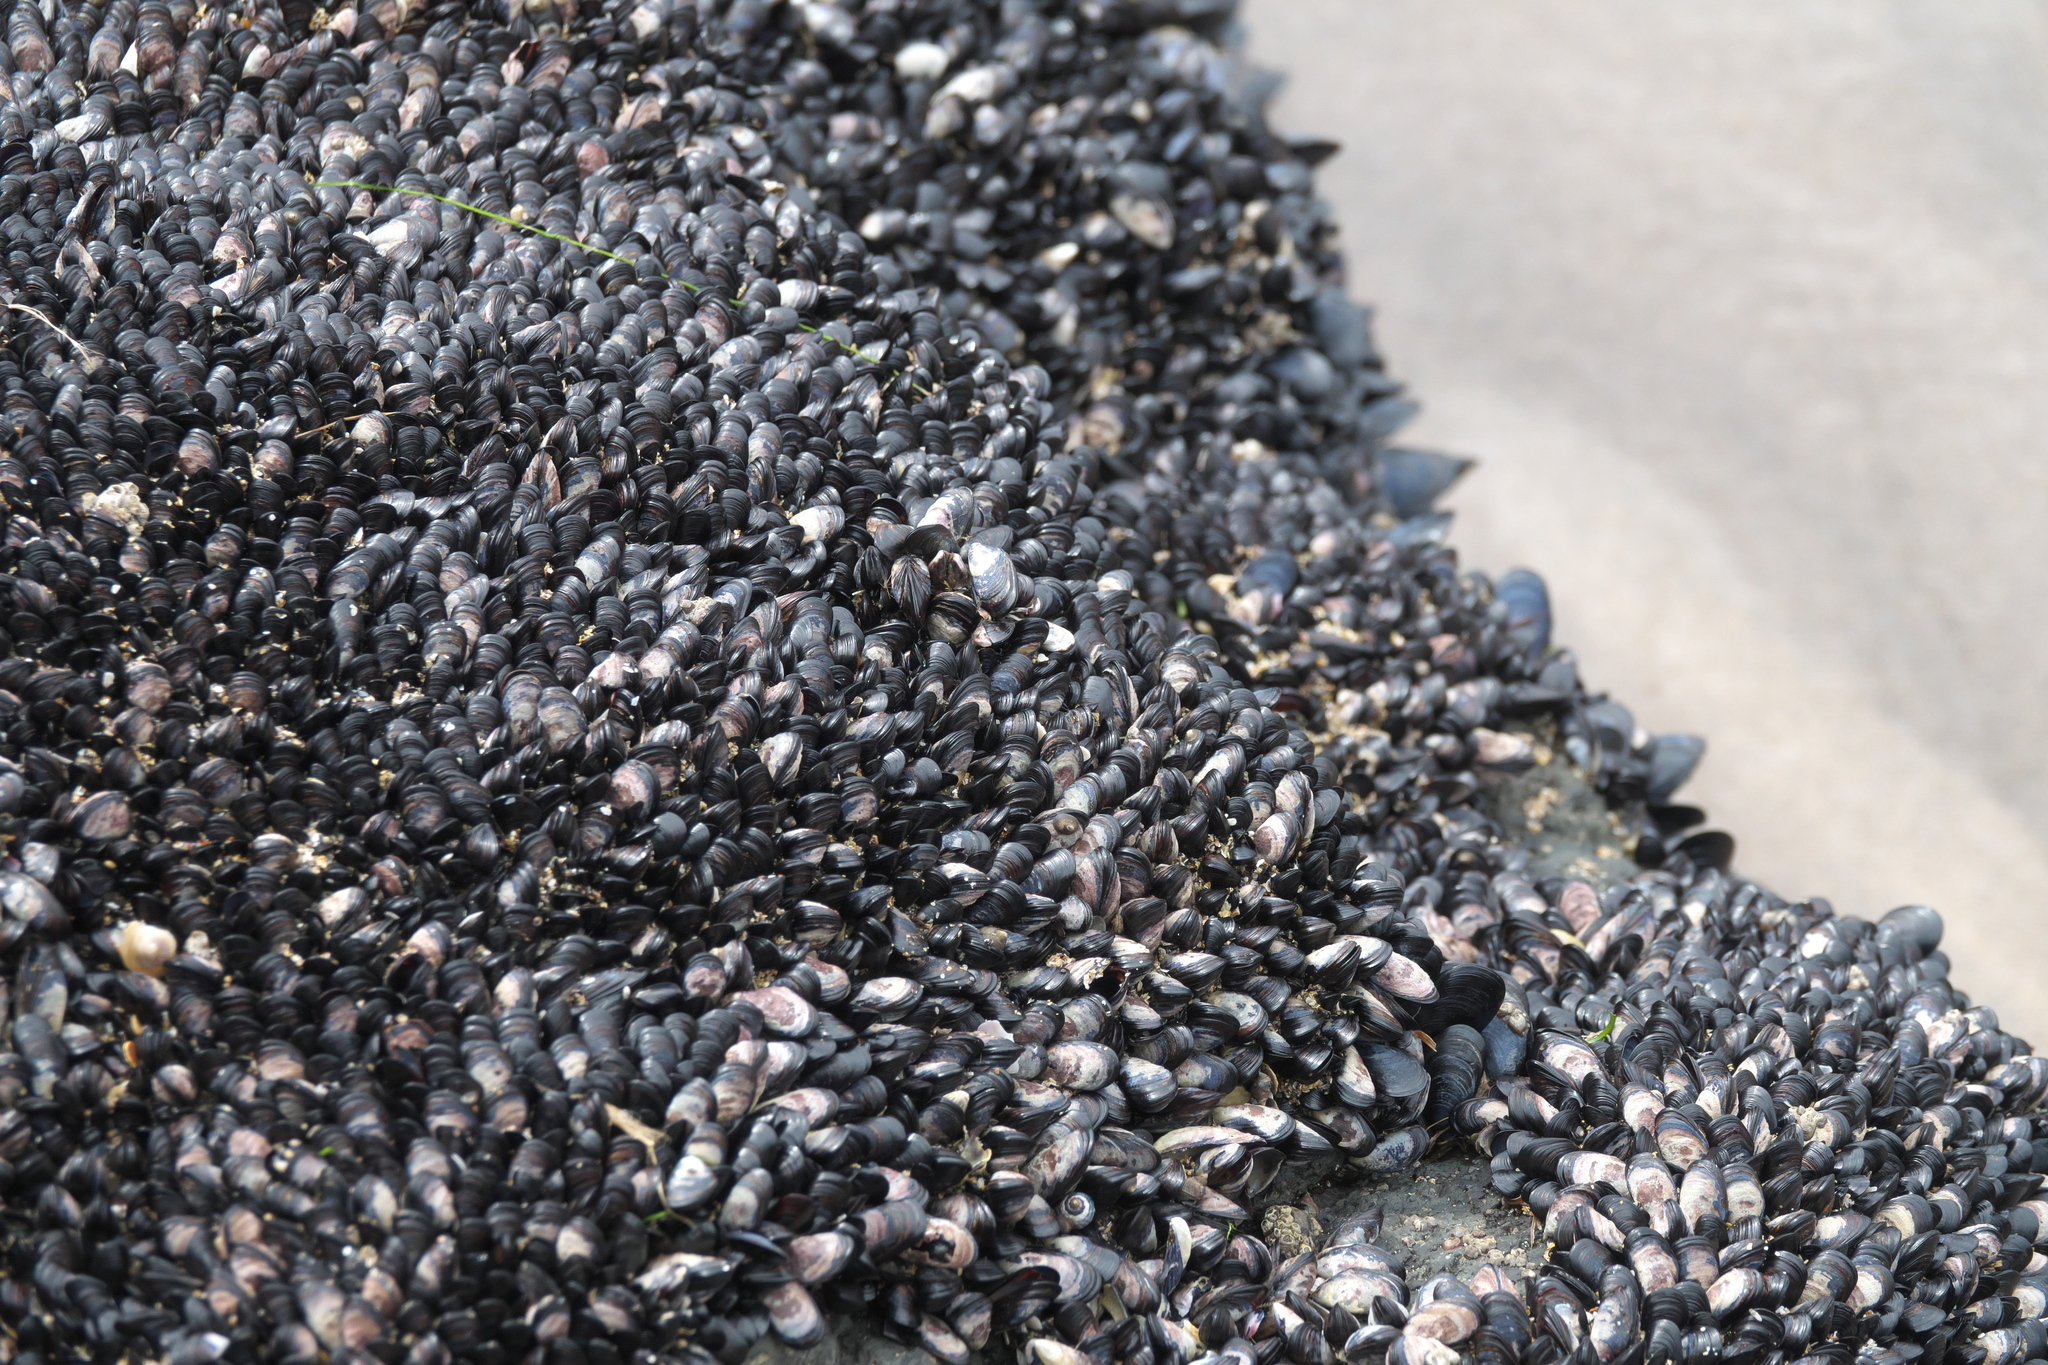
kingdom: Animalia
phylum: Mollusca
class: Bivalvia
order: Mytilida
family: Mytilidae
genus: Xenostrobus
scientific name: Xenostrobus neozelanicus
